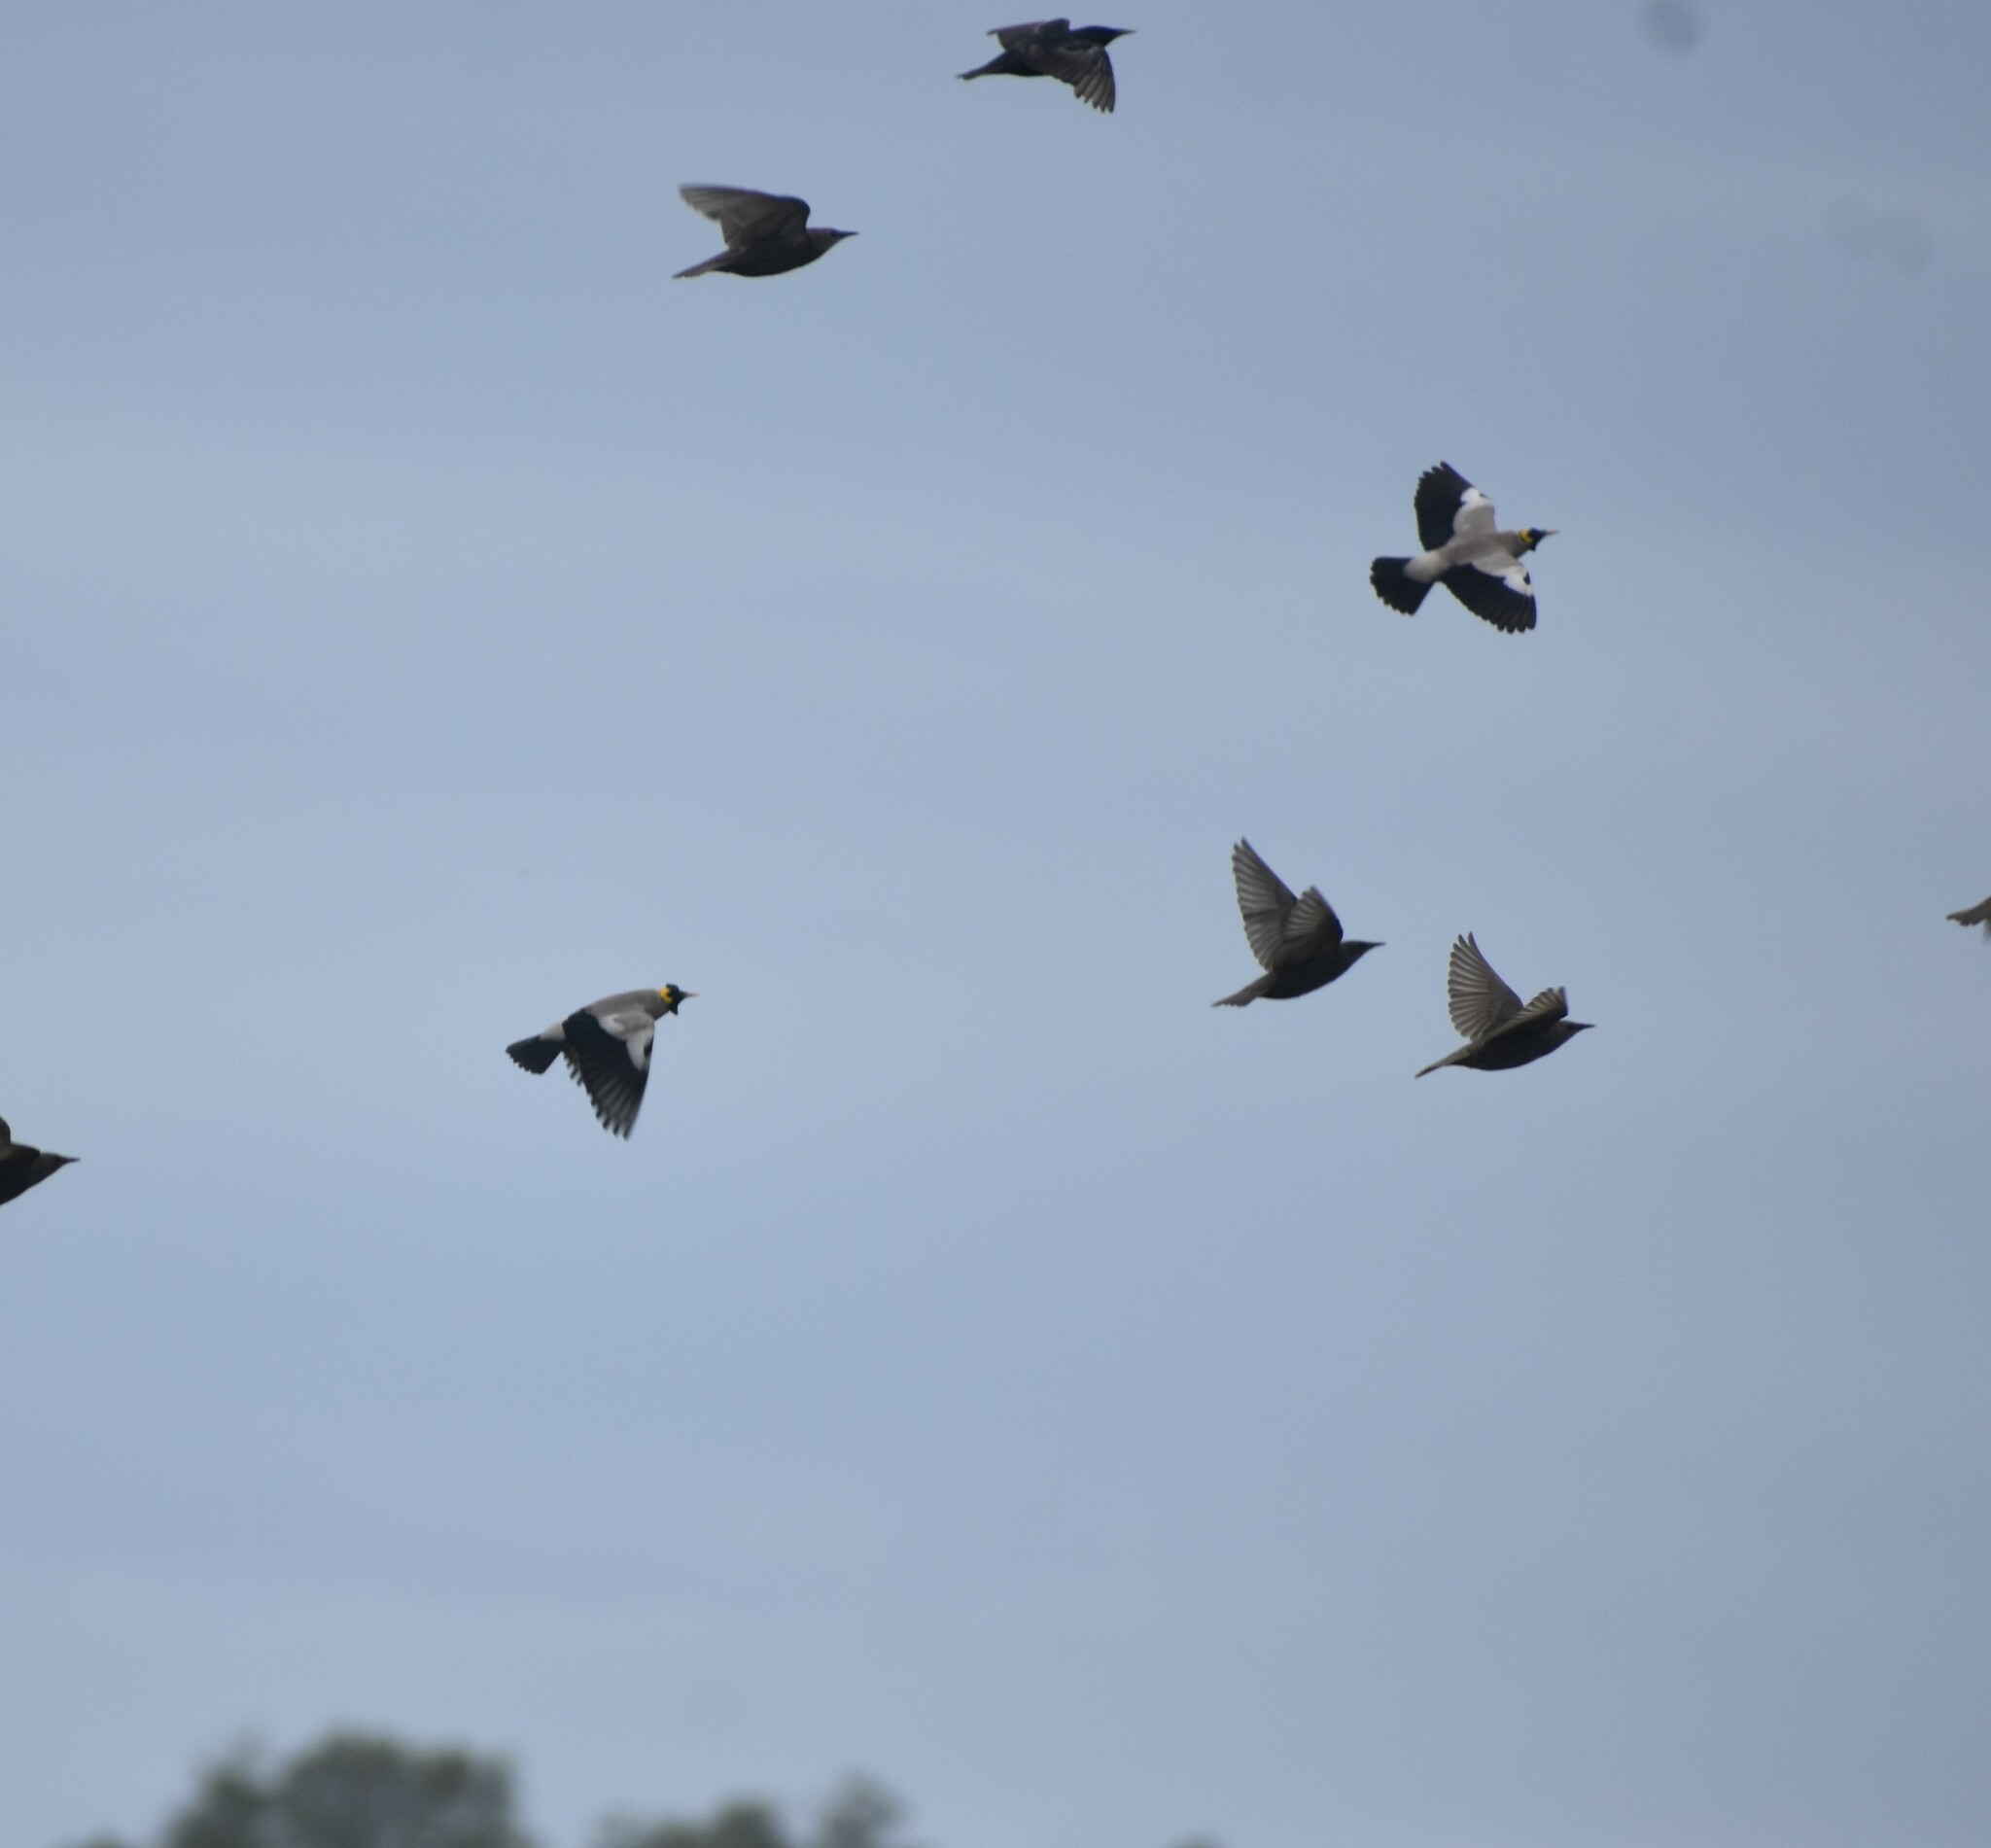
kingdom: Animalia
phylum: Chordata
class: Aves
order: Passeriformes
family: Sturnidae
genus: Creatophora
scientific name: Creatophora cinerea
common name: Wattled starling
